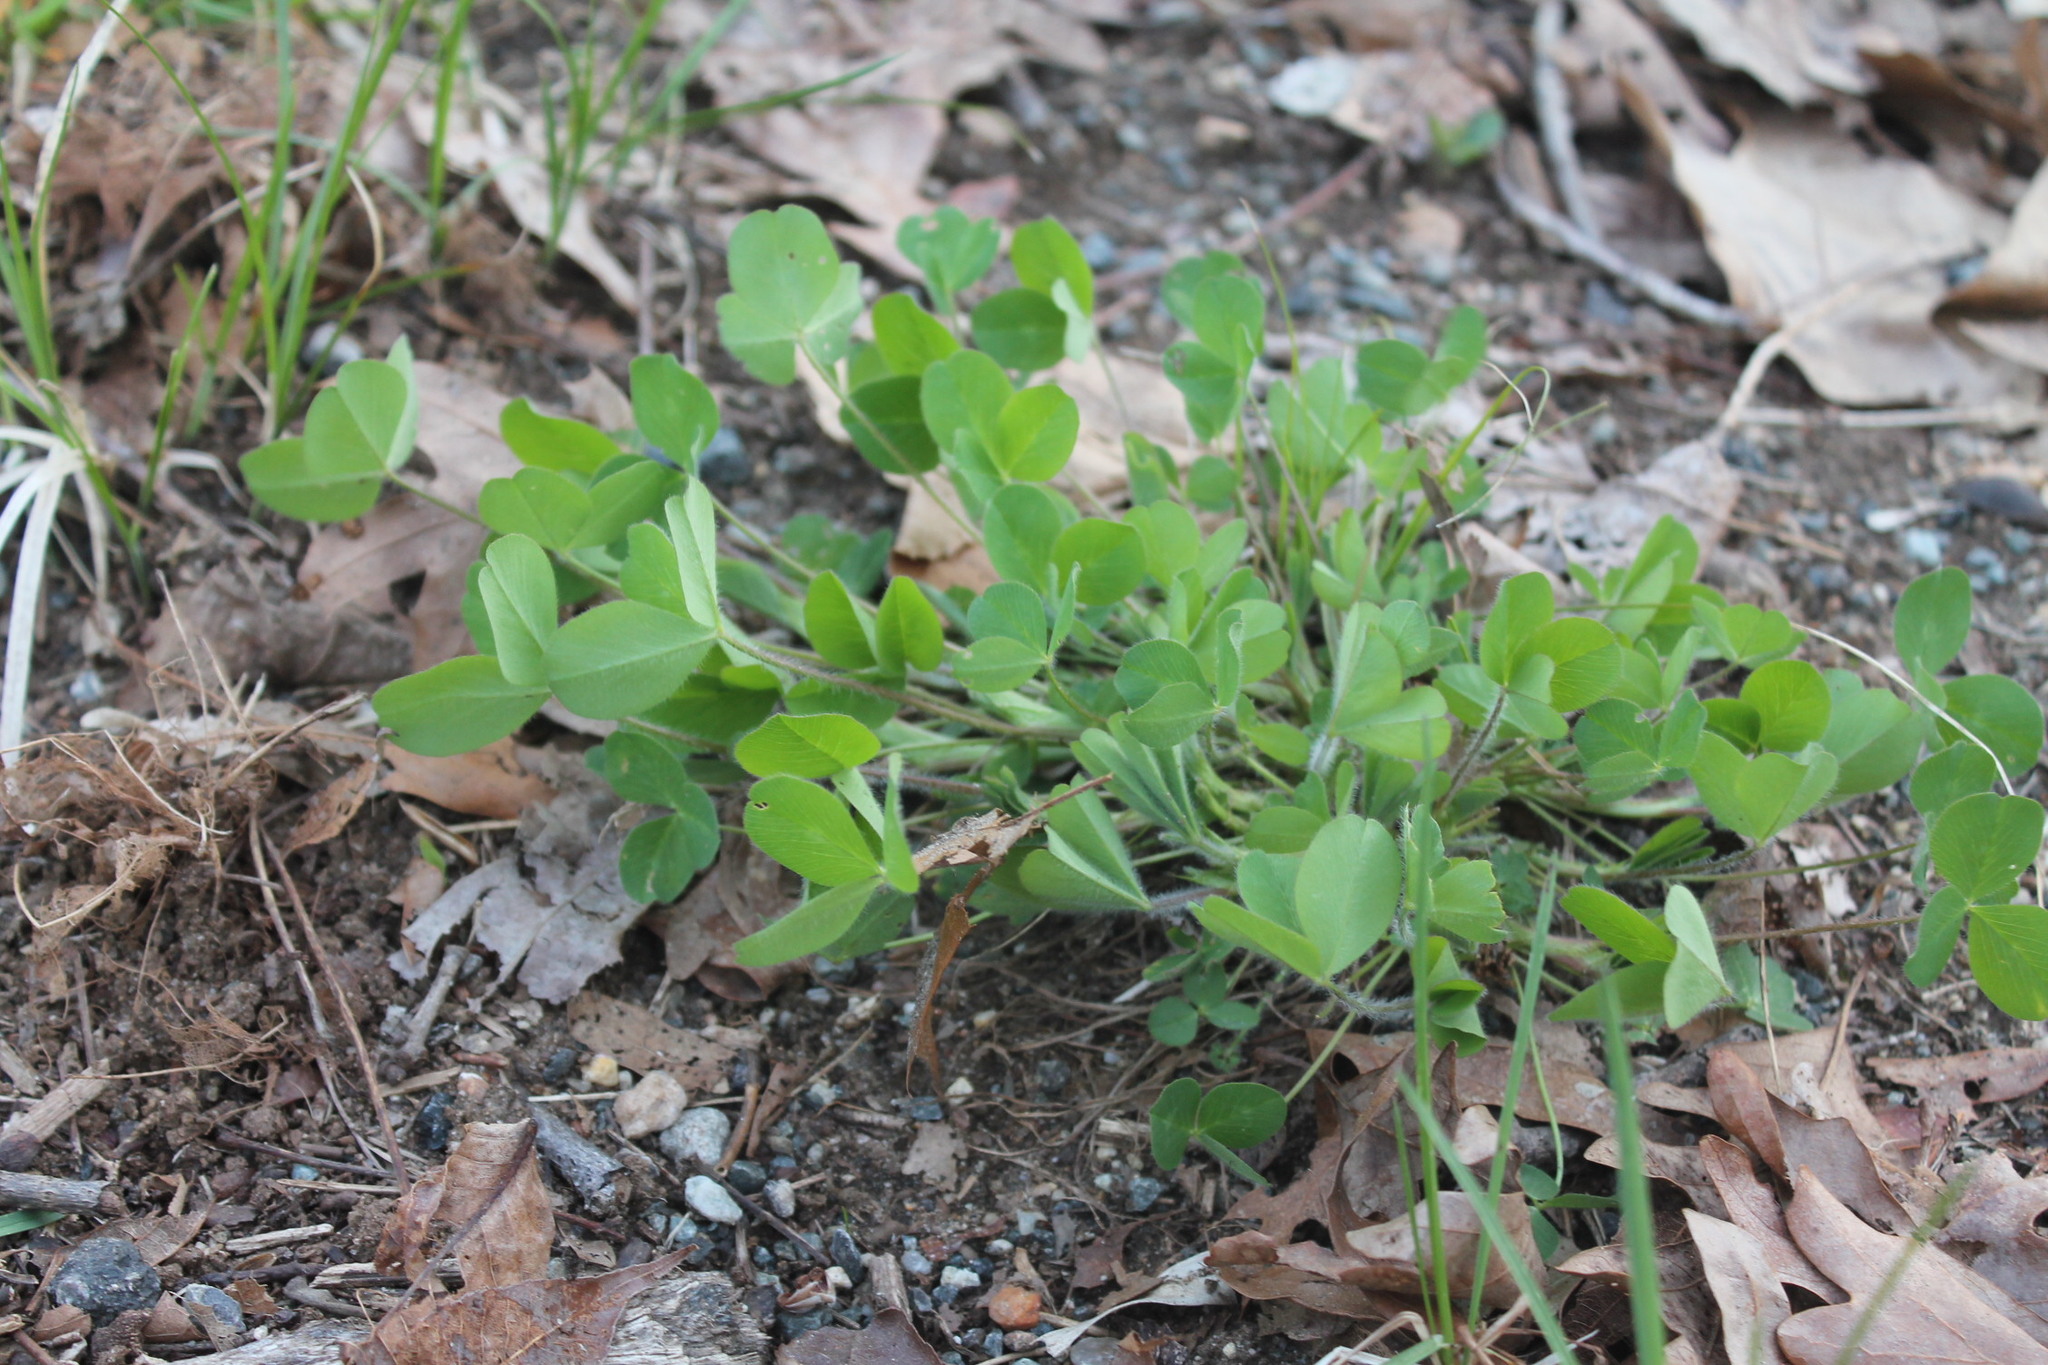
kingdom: Plantae
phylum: Tracheophyta
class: Magnoliopsida
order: Fabales
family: Fabaceae
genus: Trifolium
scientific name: Trifolium pratense
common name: Red clover
